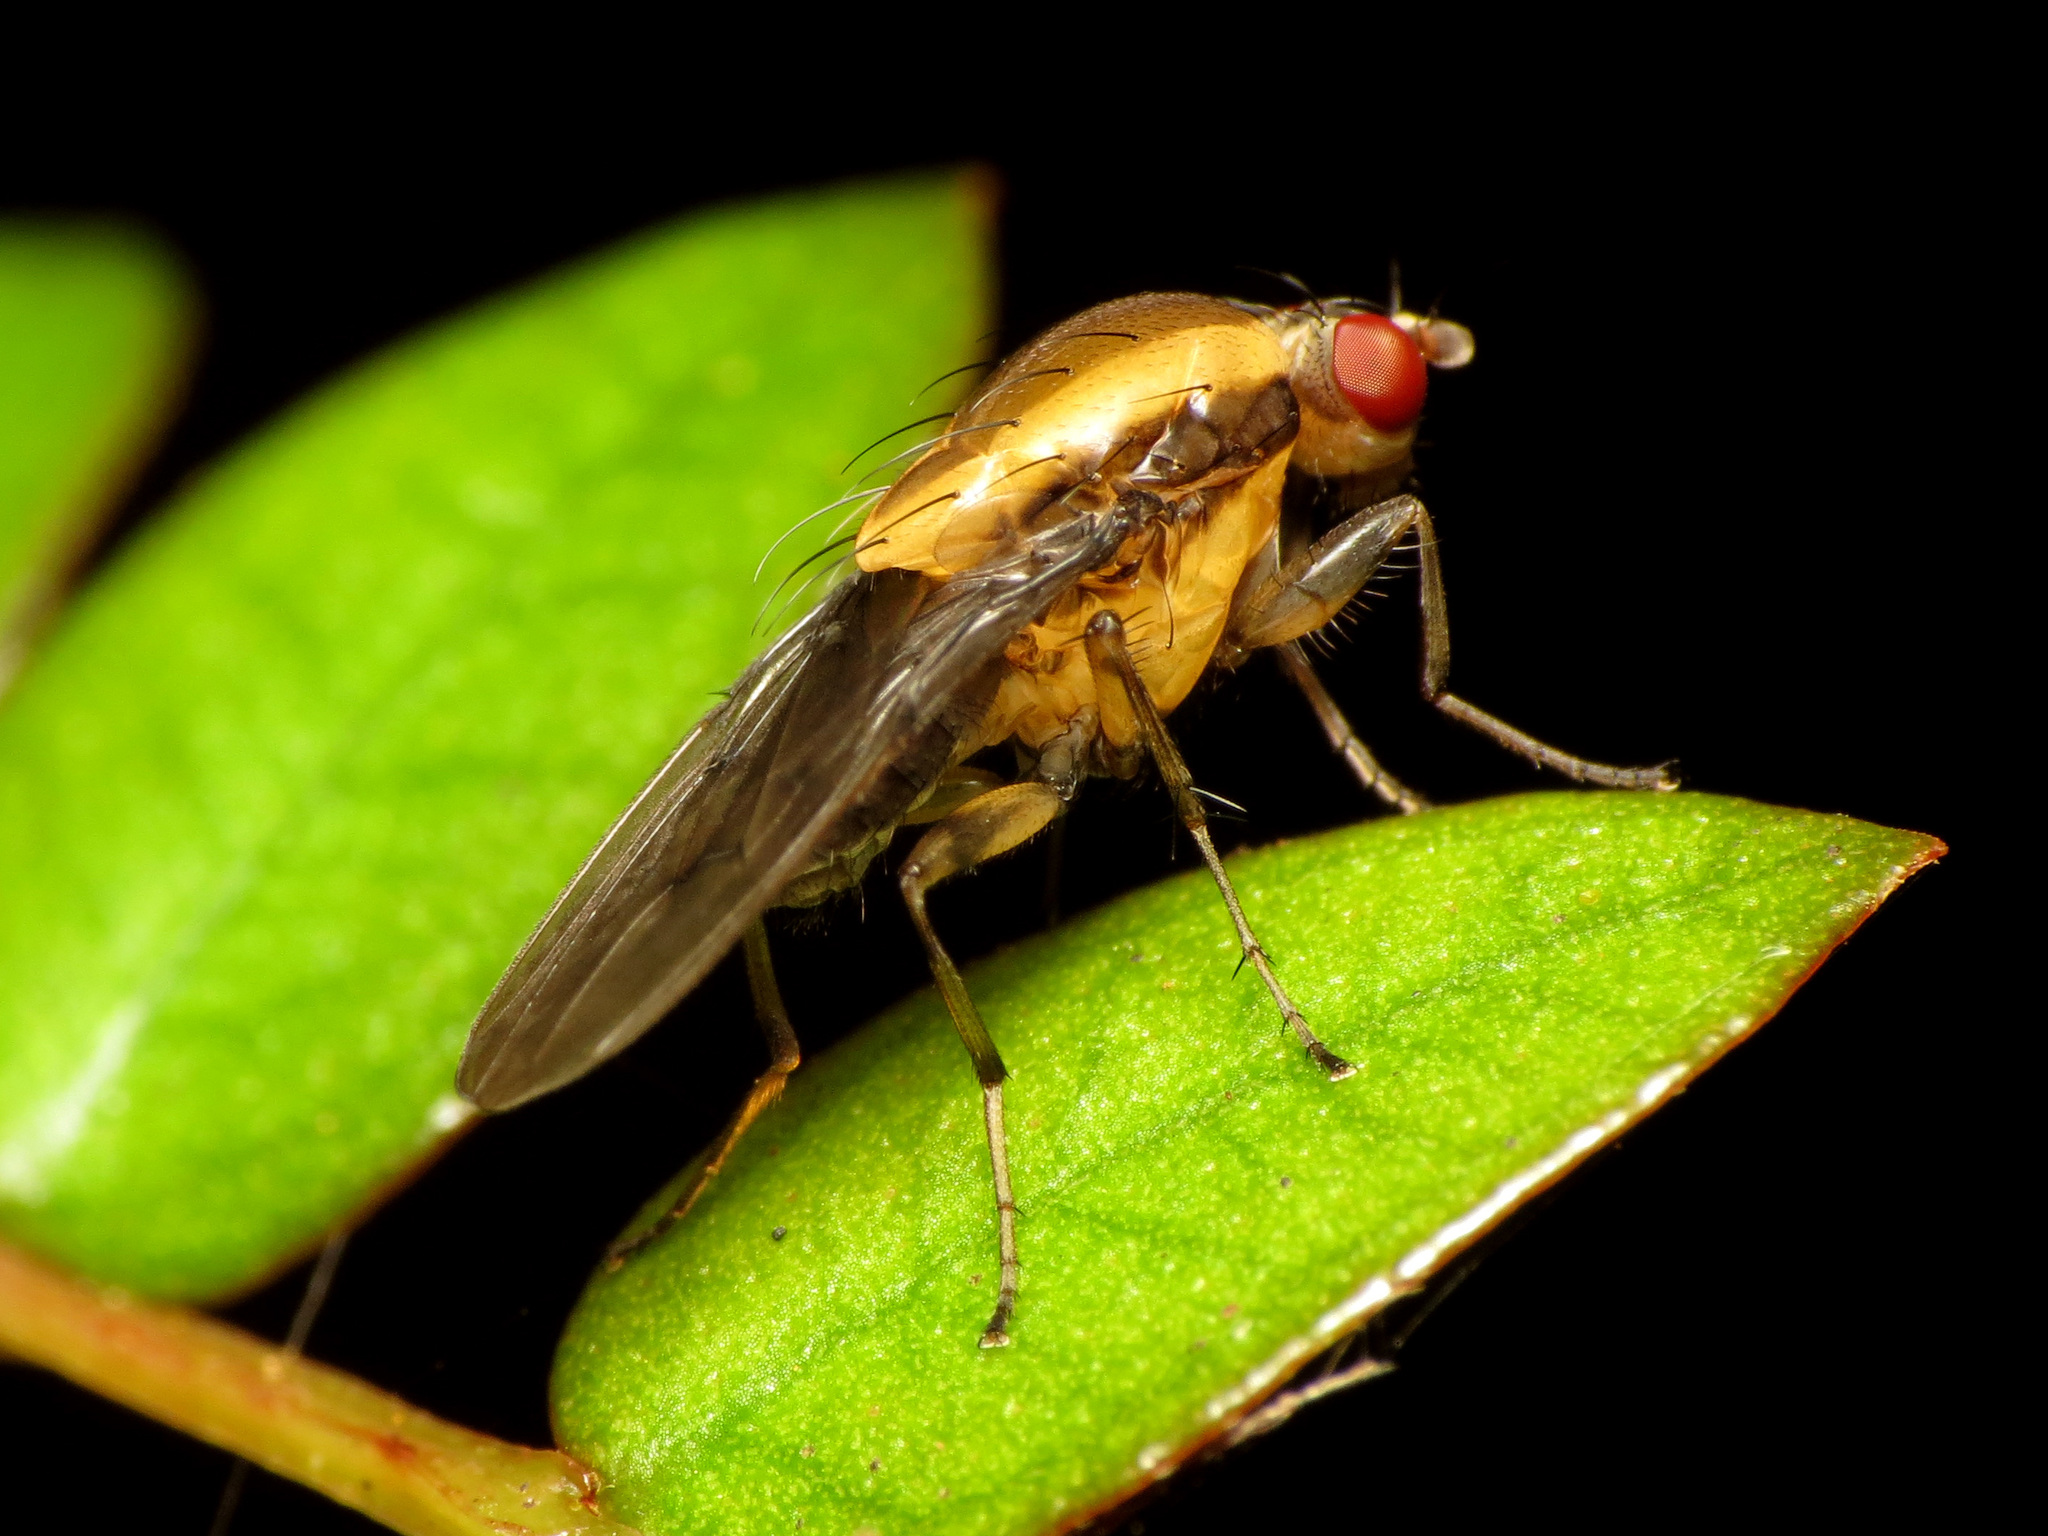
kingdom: Animalia
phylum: Arthropoda
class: Insecta
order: Diptera
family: Heleomyzidae
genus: Allophylopsis
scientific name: Allophylopsis scutellata
